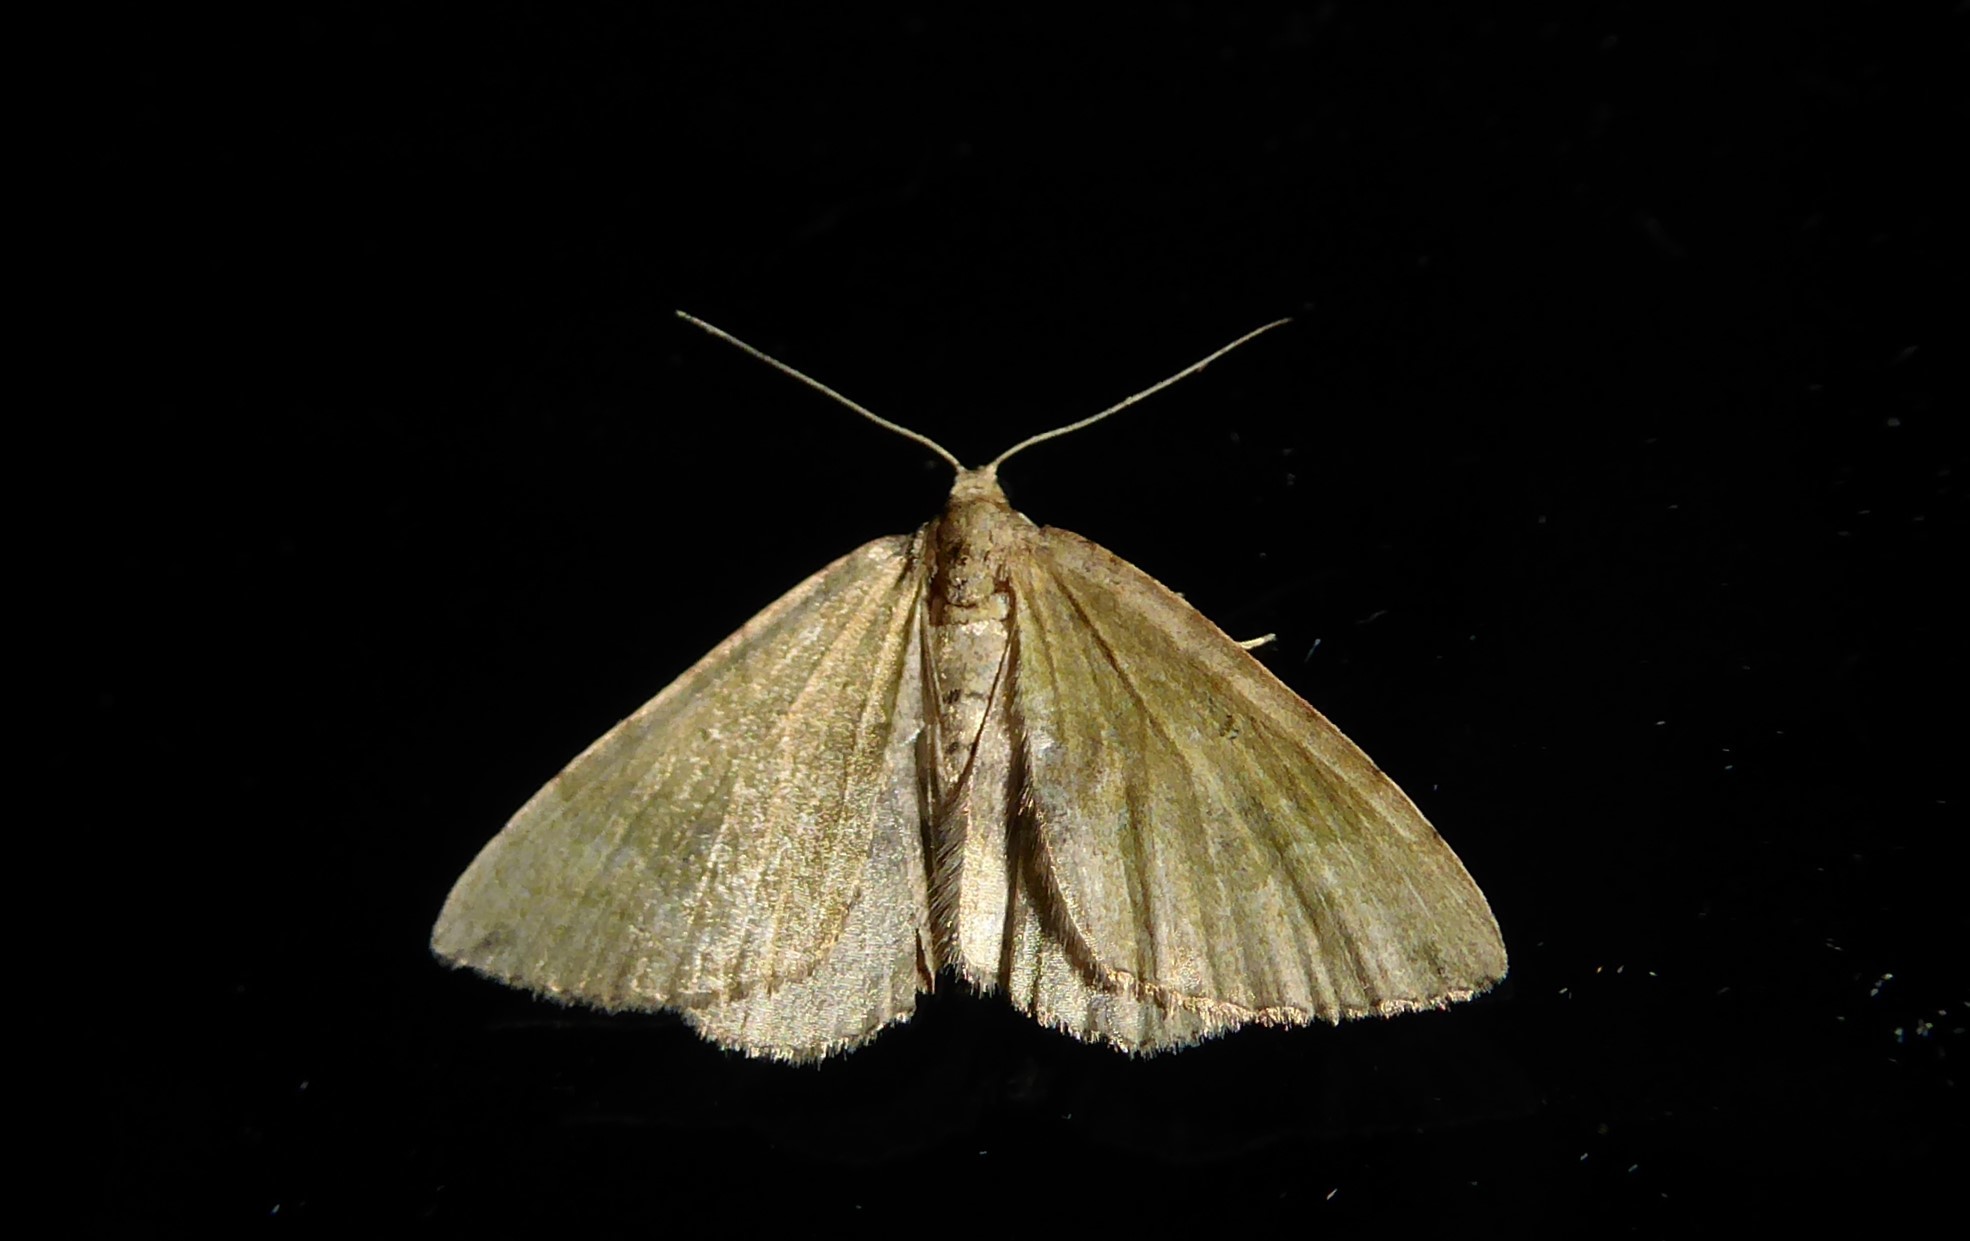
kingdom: Animalia
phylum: Arthropoda
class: Insecta
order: Lepidoptera
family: Geometridae
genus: Epyaxa
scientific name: Epyaxa rosearia
